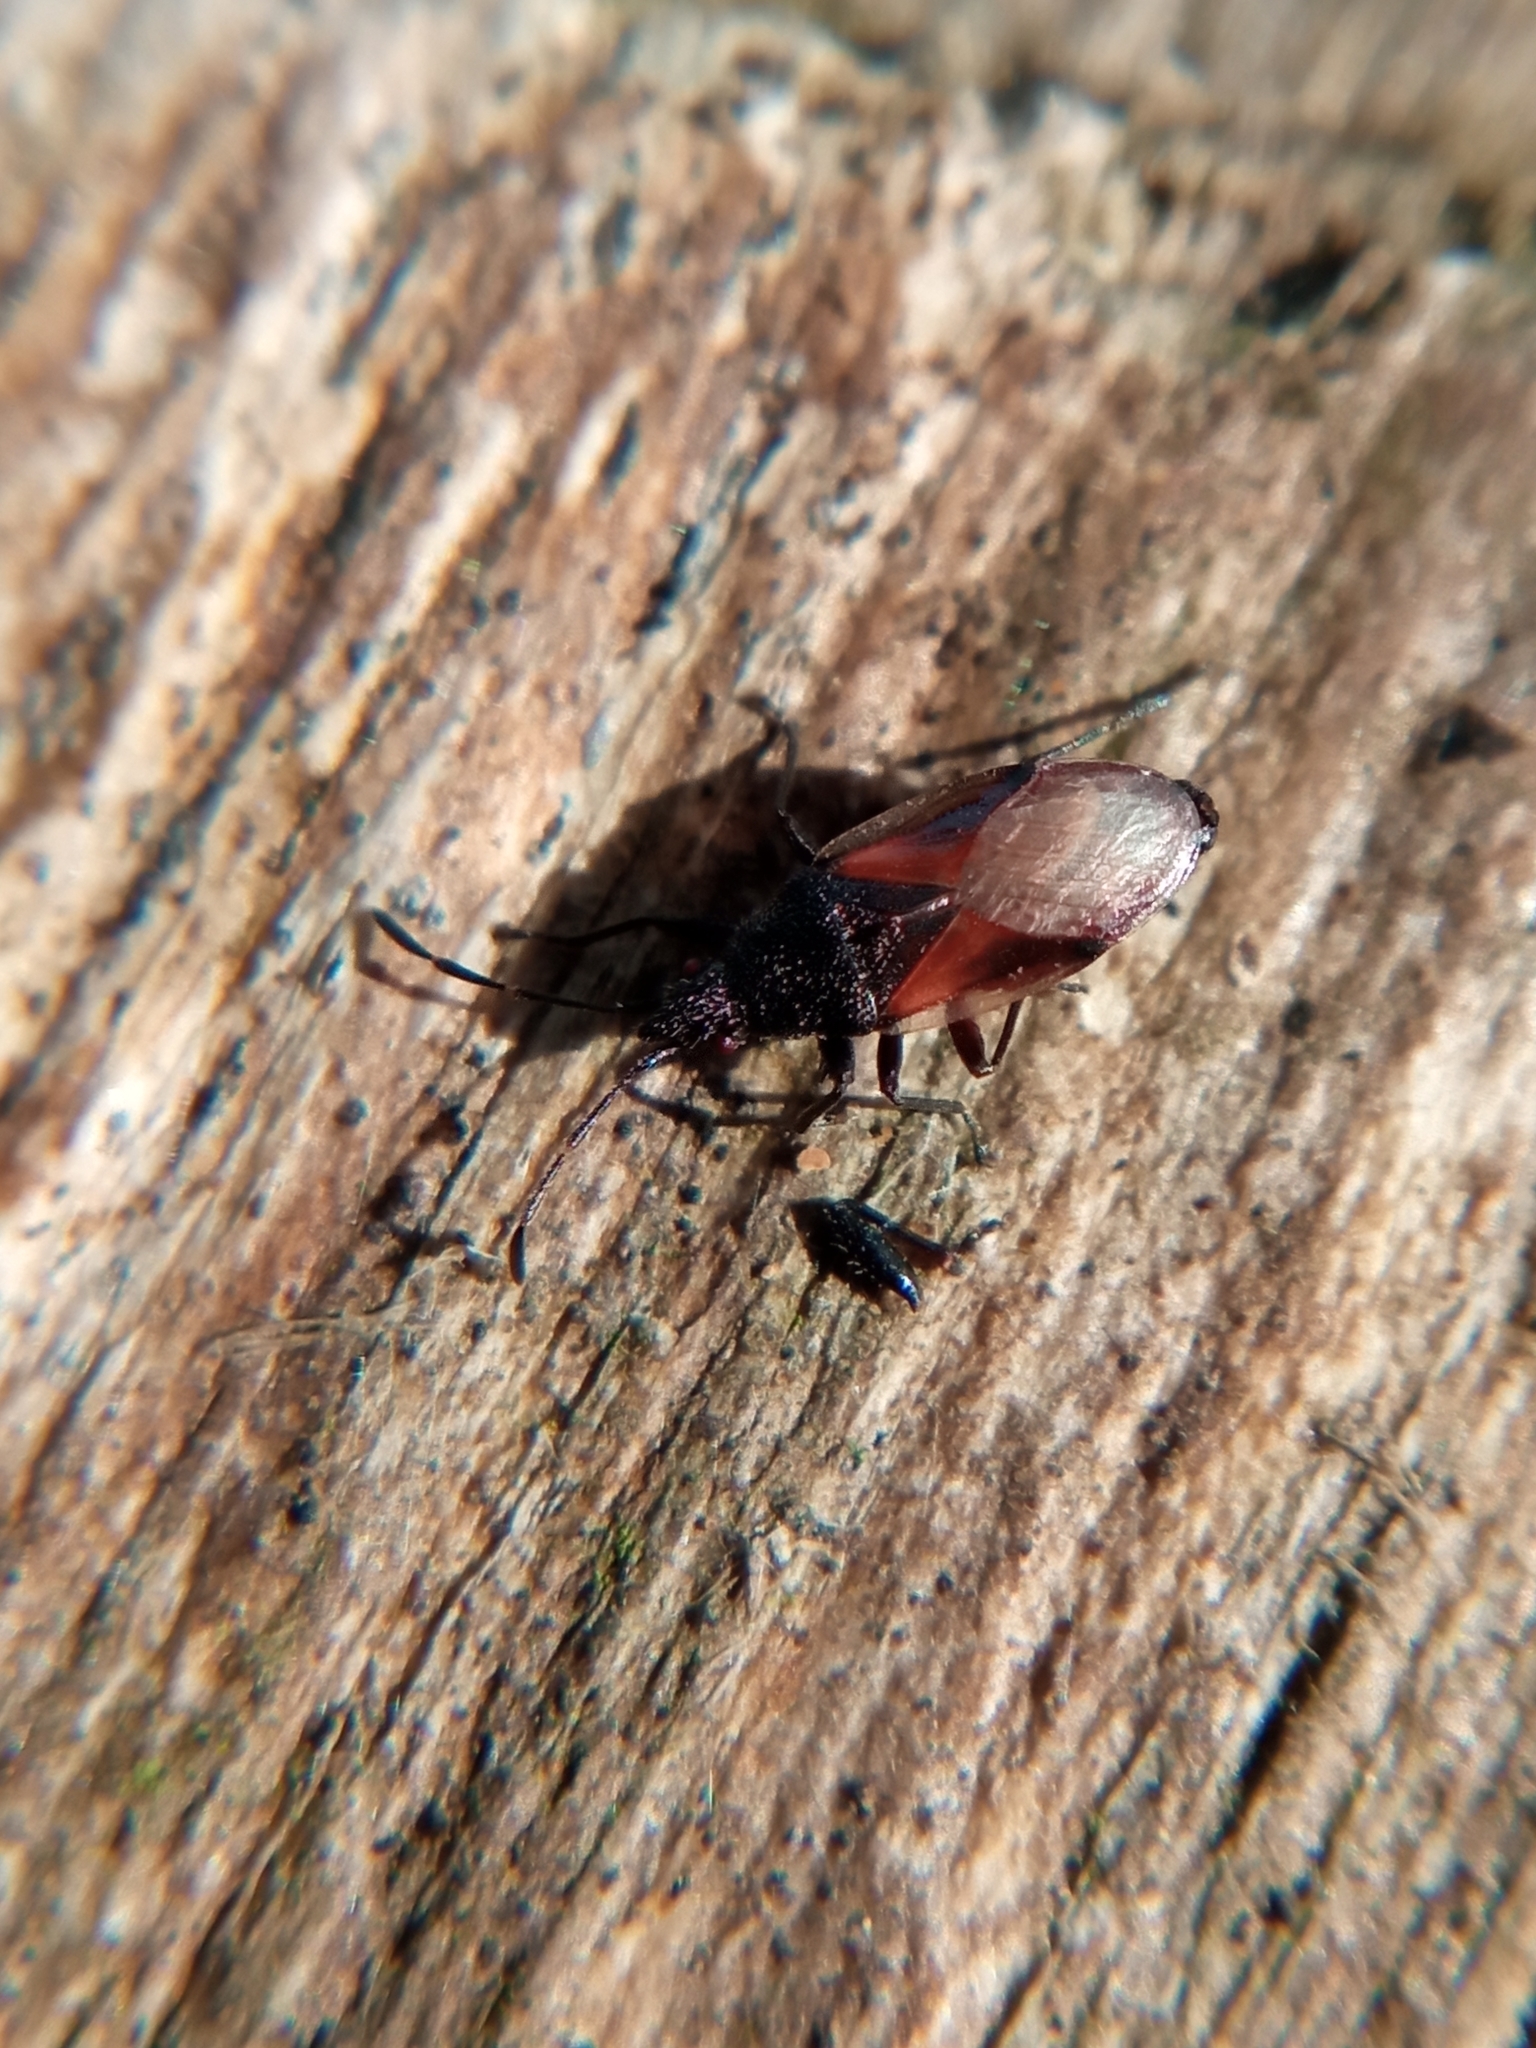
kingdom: Animalia
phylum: Arthropoda
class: Insecta
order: Hemiptera
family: Oxycarenidae
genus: Oxycarenus
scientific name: Oxycarenus lavaterae
